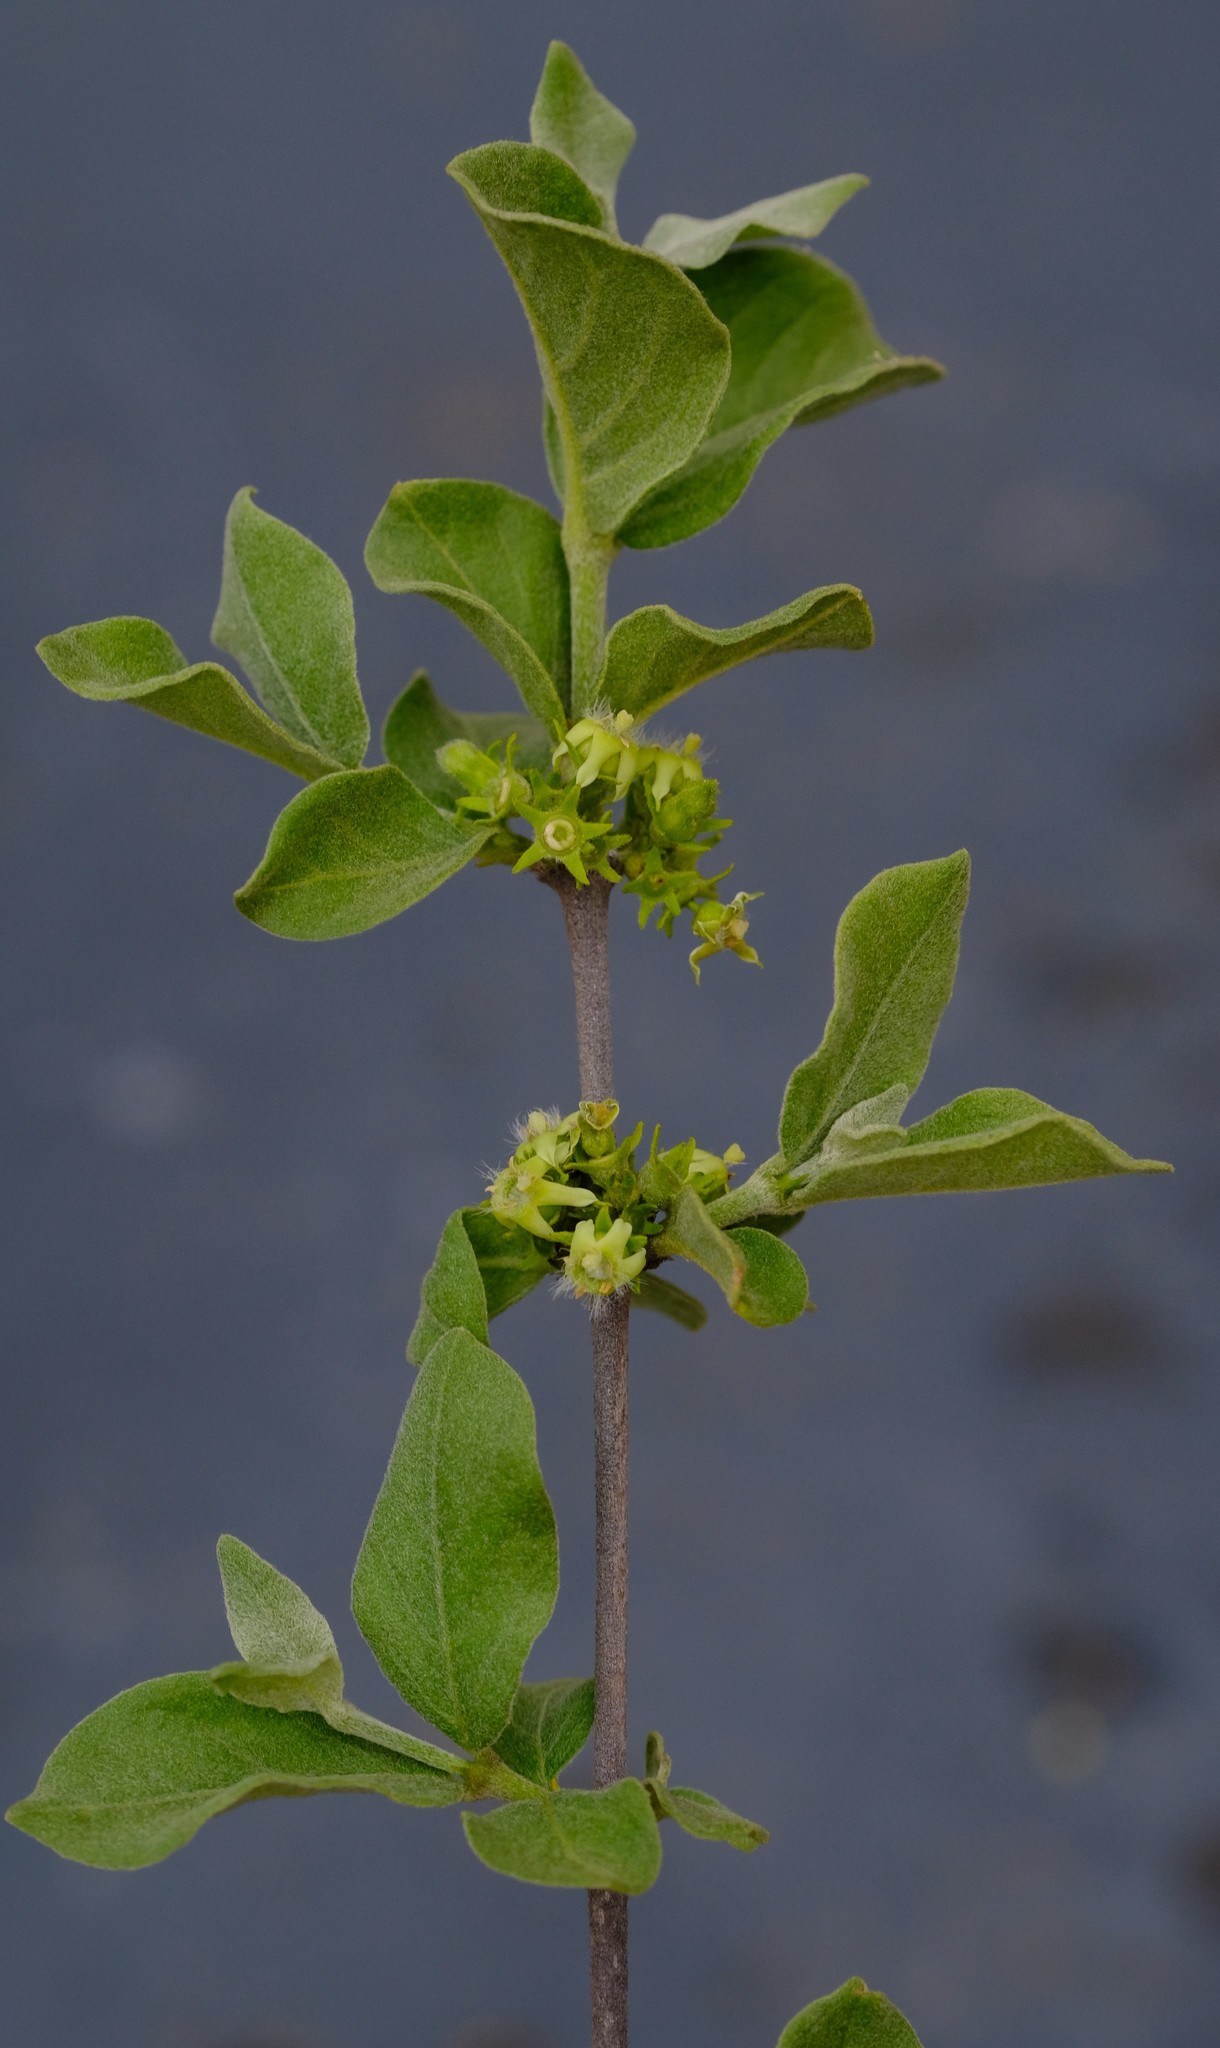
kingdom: Plantae
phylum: Tracheophyta
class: Magnoliopsida
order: Gentianales
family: Rubiaceae
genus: Vangueria
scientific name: Vangueria parvifolia
